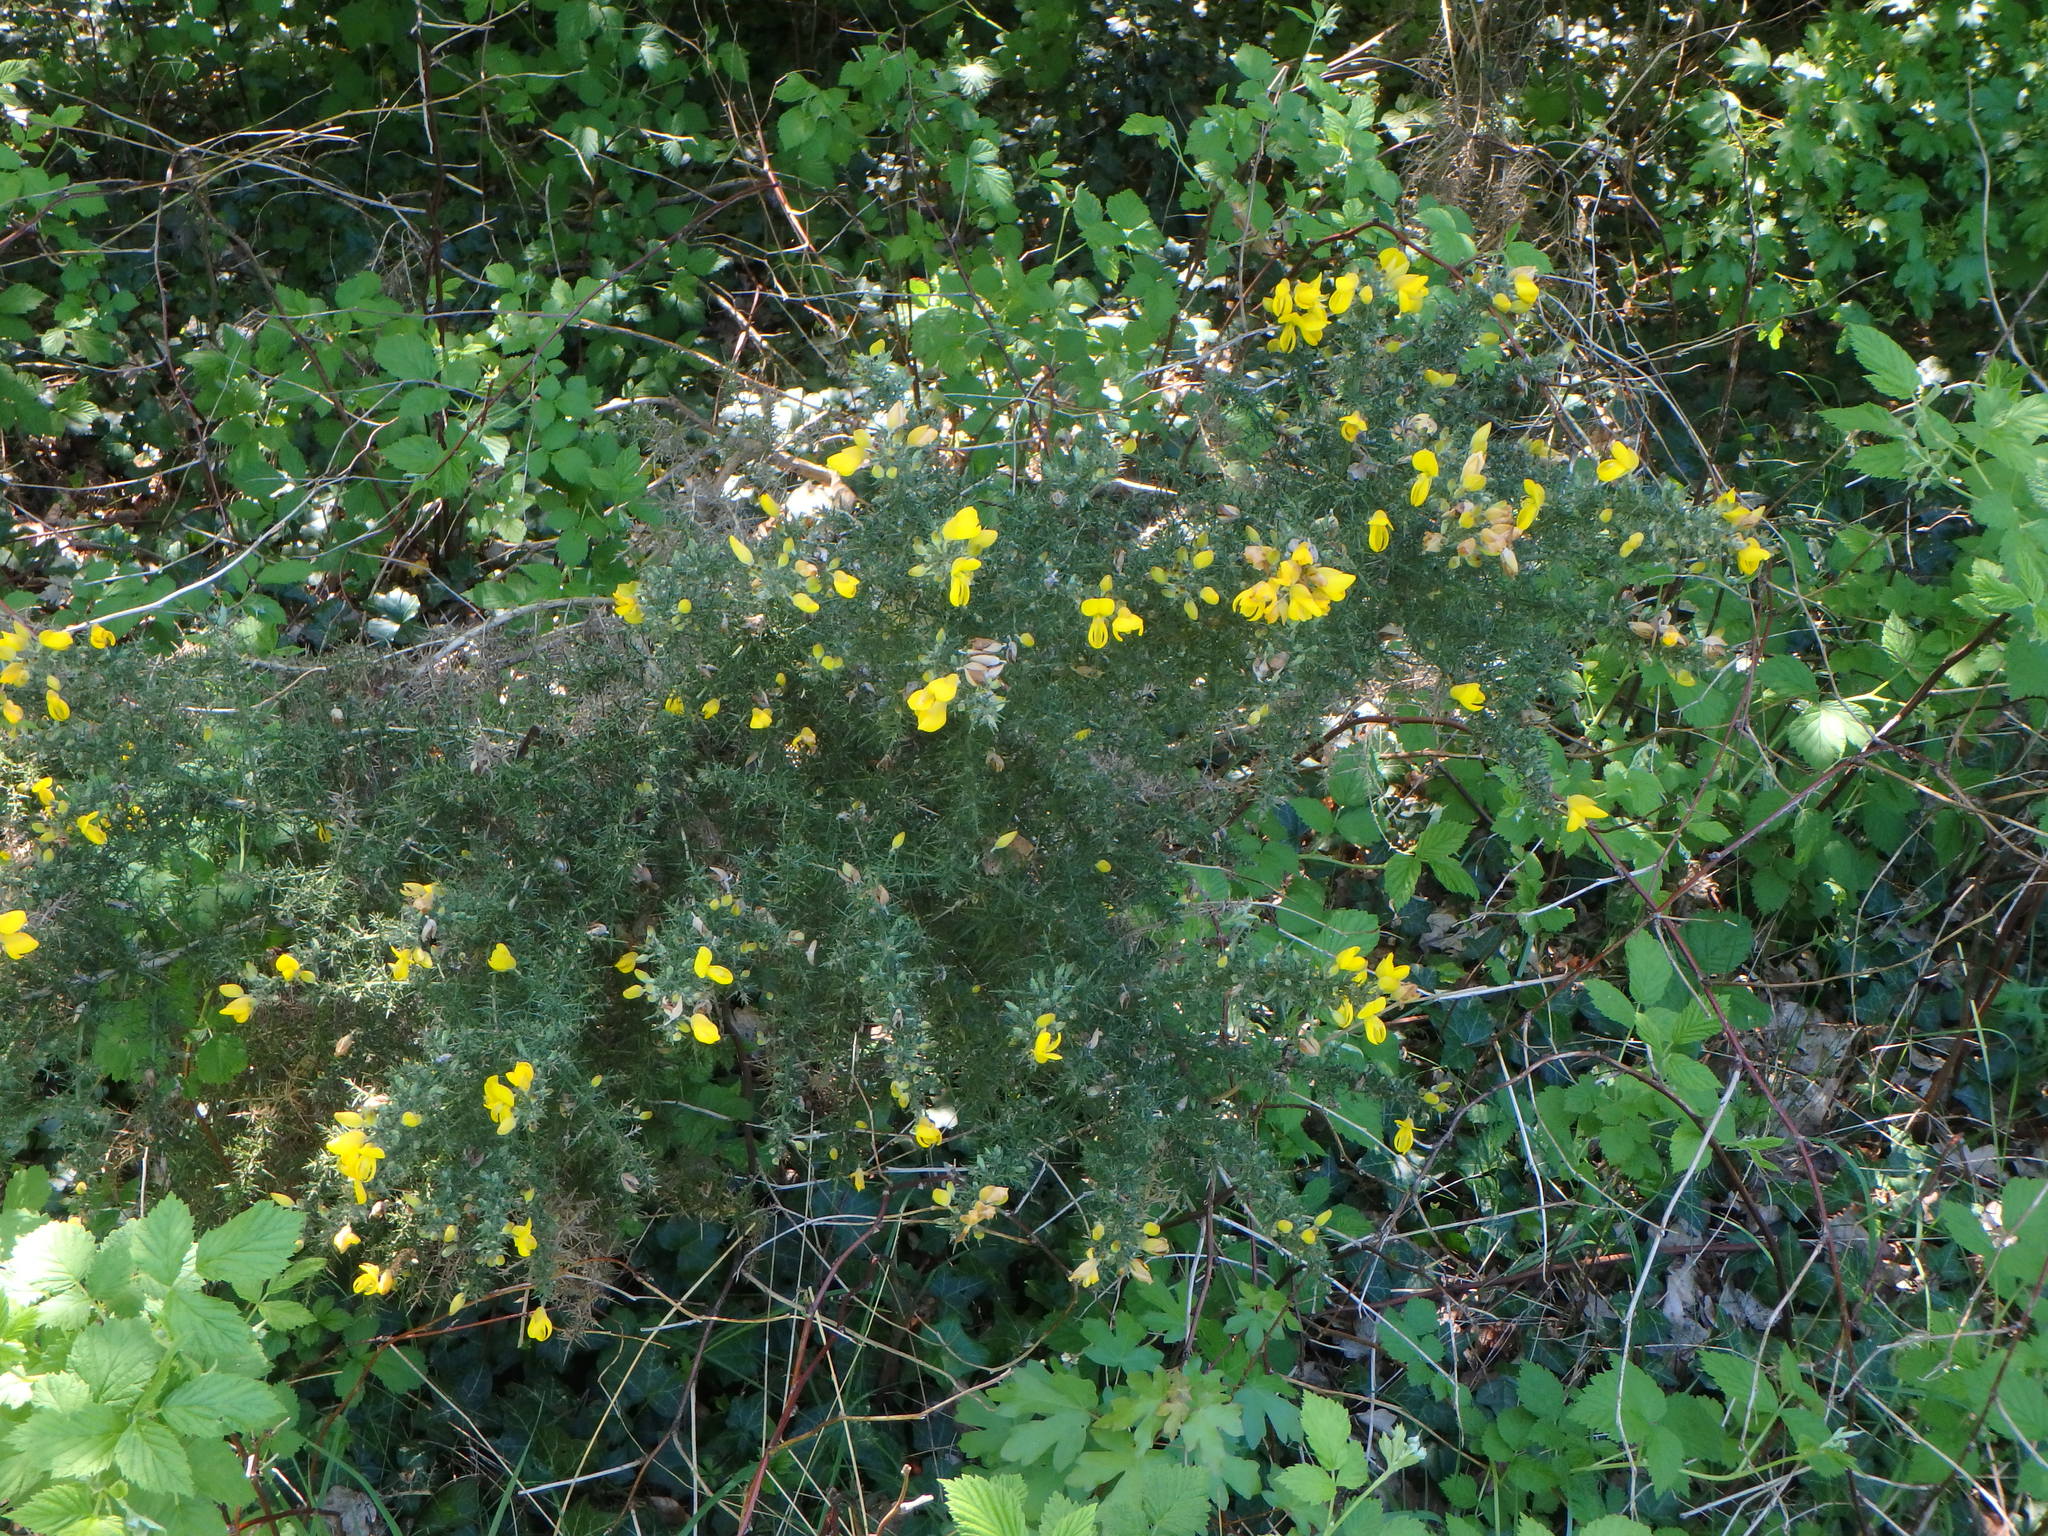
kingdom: Plantae
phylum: Tracheophyta
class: Magnoliopsida
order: Fabales
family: Fabaceae
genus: Ulex
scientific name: Ulex europaeus
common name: Common gorse
